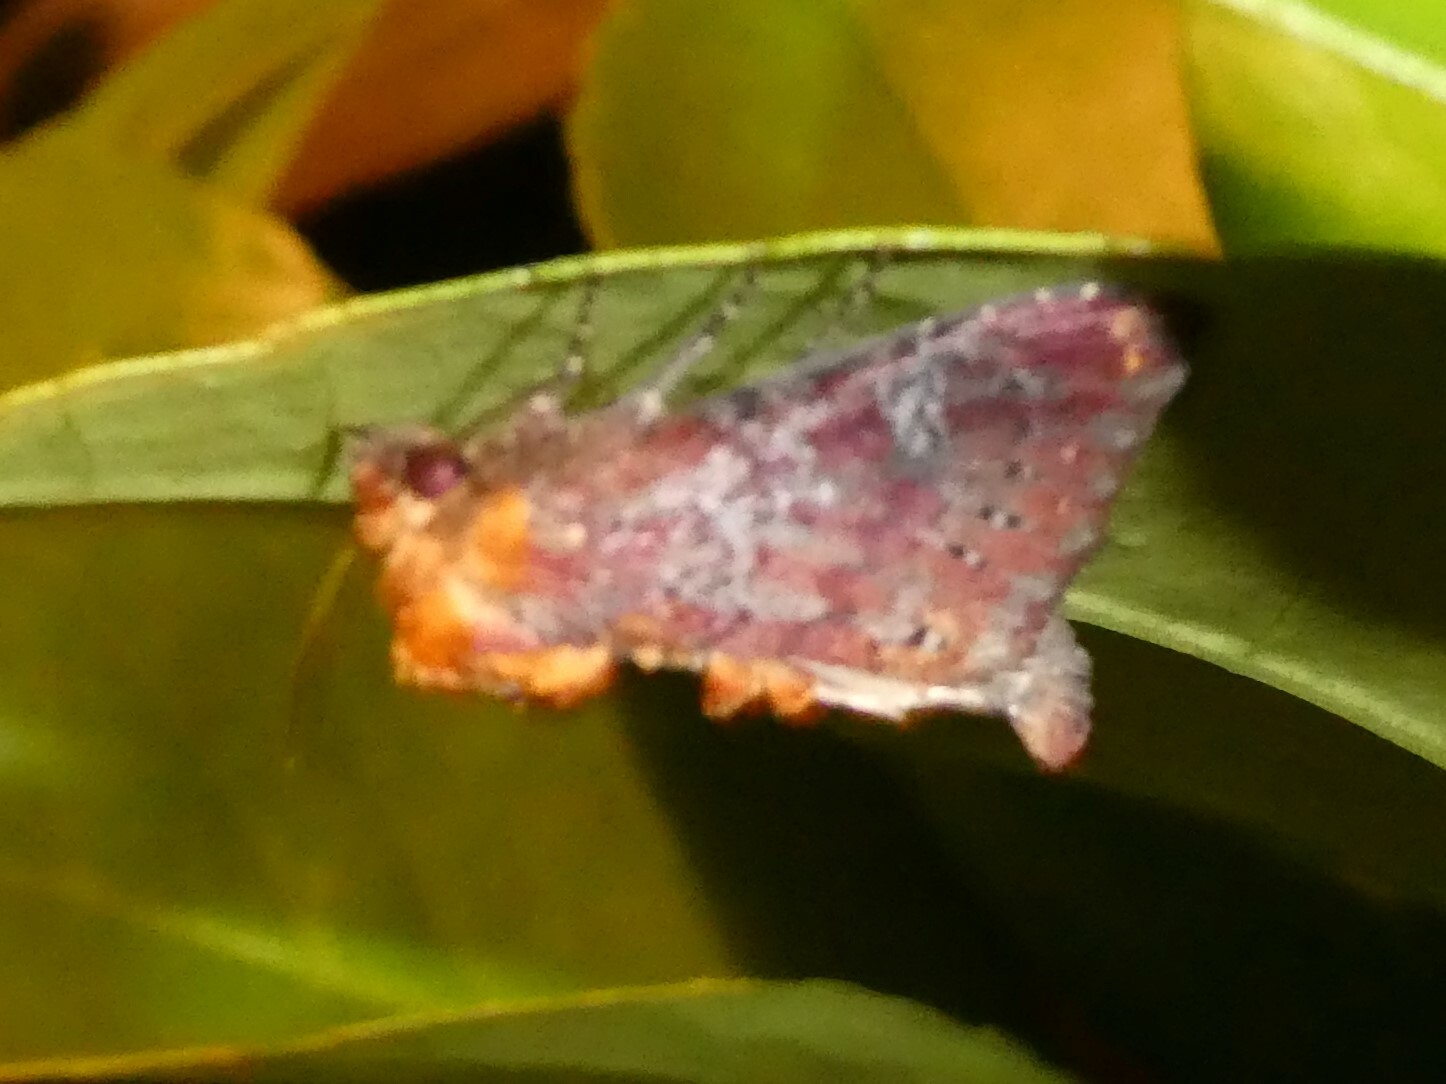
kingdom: Animalia
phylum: Arthropoda
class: Insecta
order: Lepidoptera
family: Noctuidae
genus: Achatodes
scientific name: Achatodes zeae
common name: Elder shoot borer
